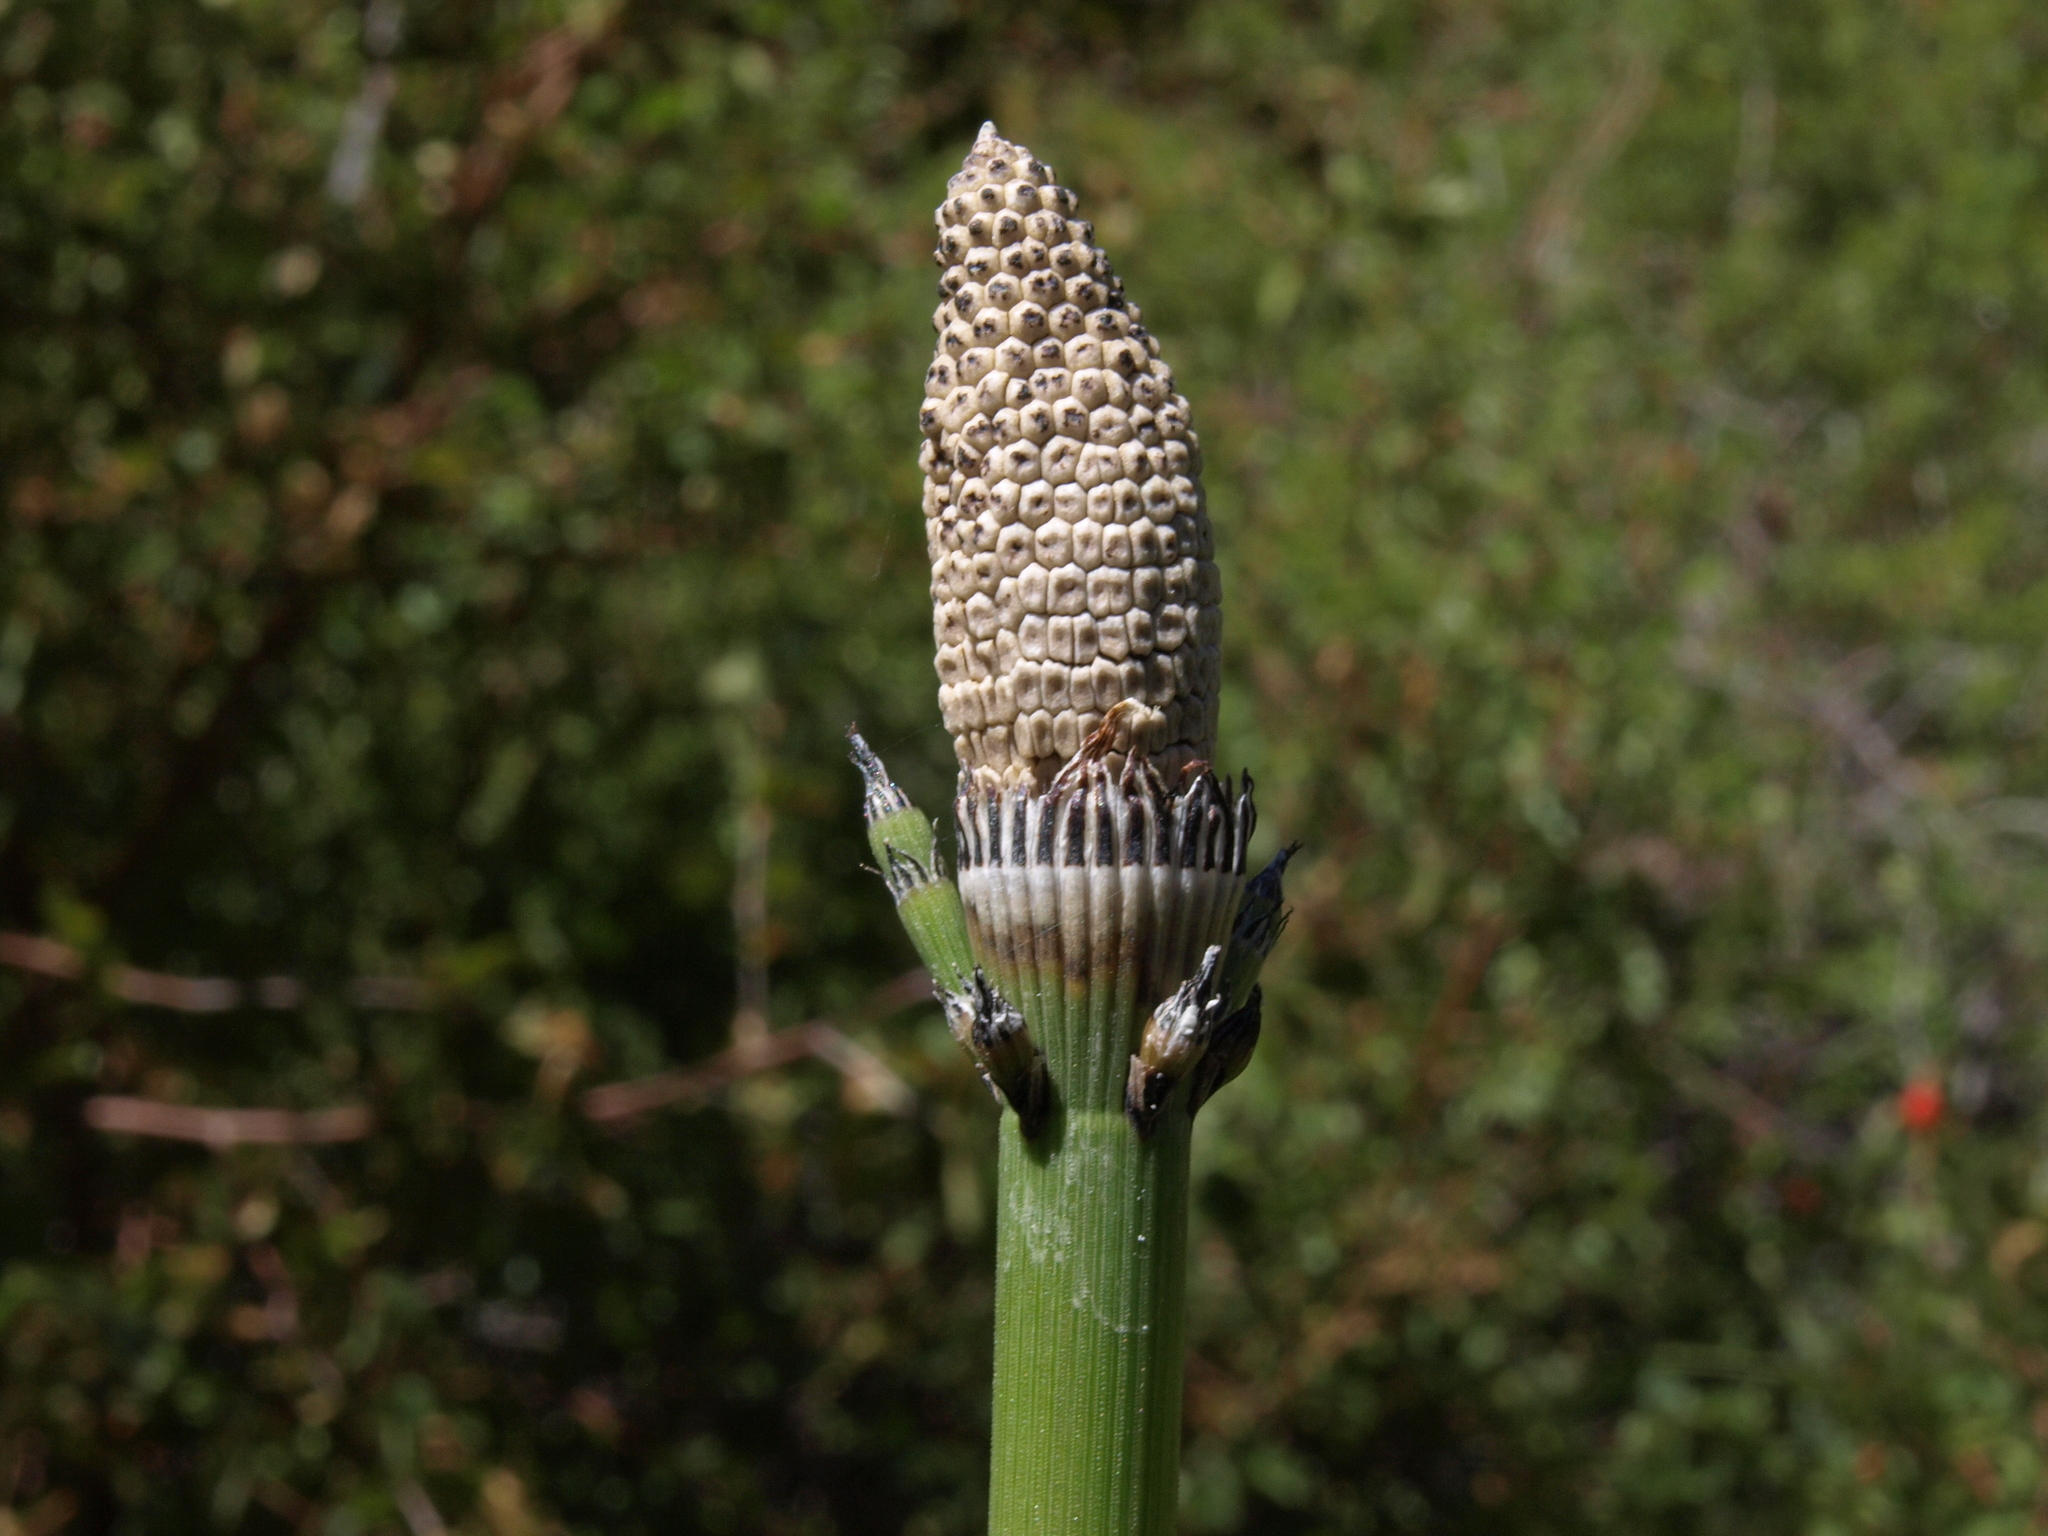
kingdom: Plantae
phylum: Tracheophyta
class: Polypodiopsida
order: Equisetales
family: Equisetaceae
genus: Equisetum
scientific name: Equisetum ferrissii
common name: Ferriss' horsetail
